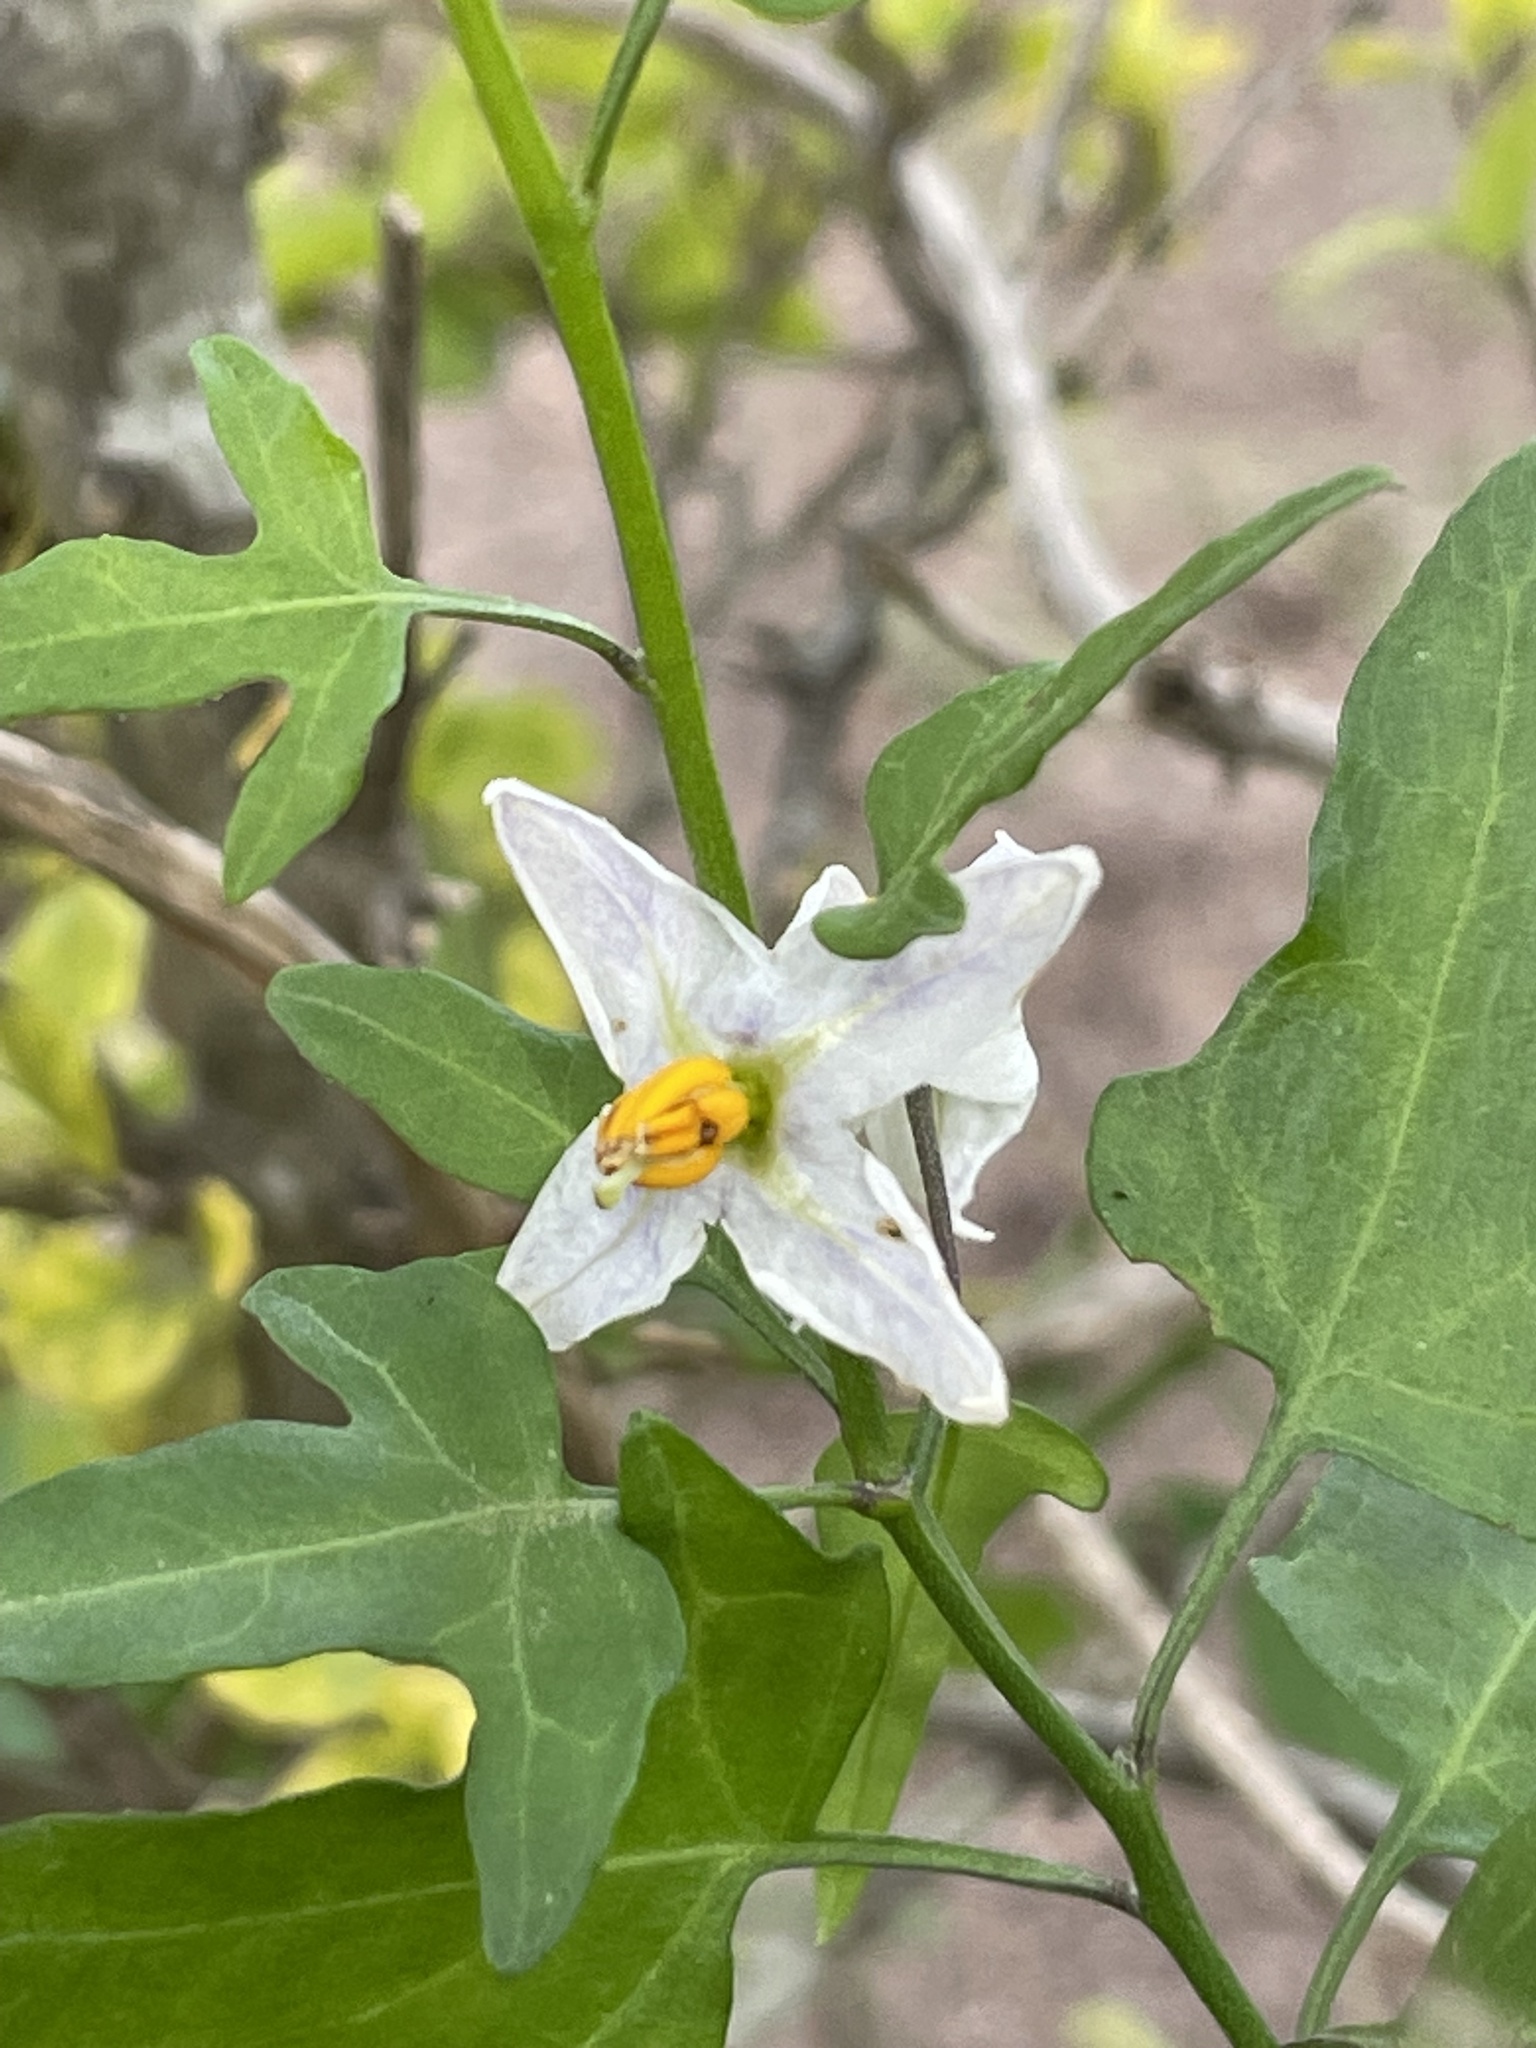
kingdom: Plantae
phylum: Tracheophyta
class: Magnoliopsida
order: Solanales
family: Solanaceae
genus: Solanum
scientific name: Solanum triquetrum
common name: Texas nightshade
